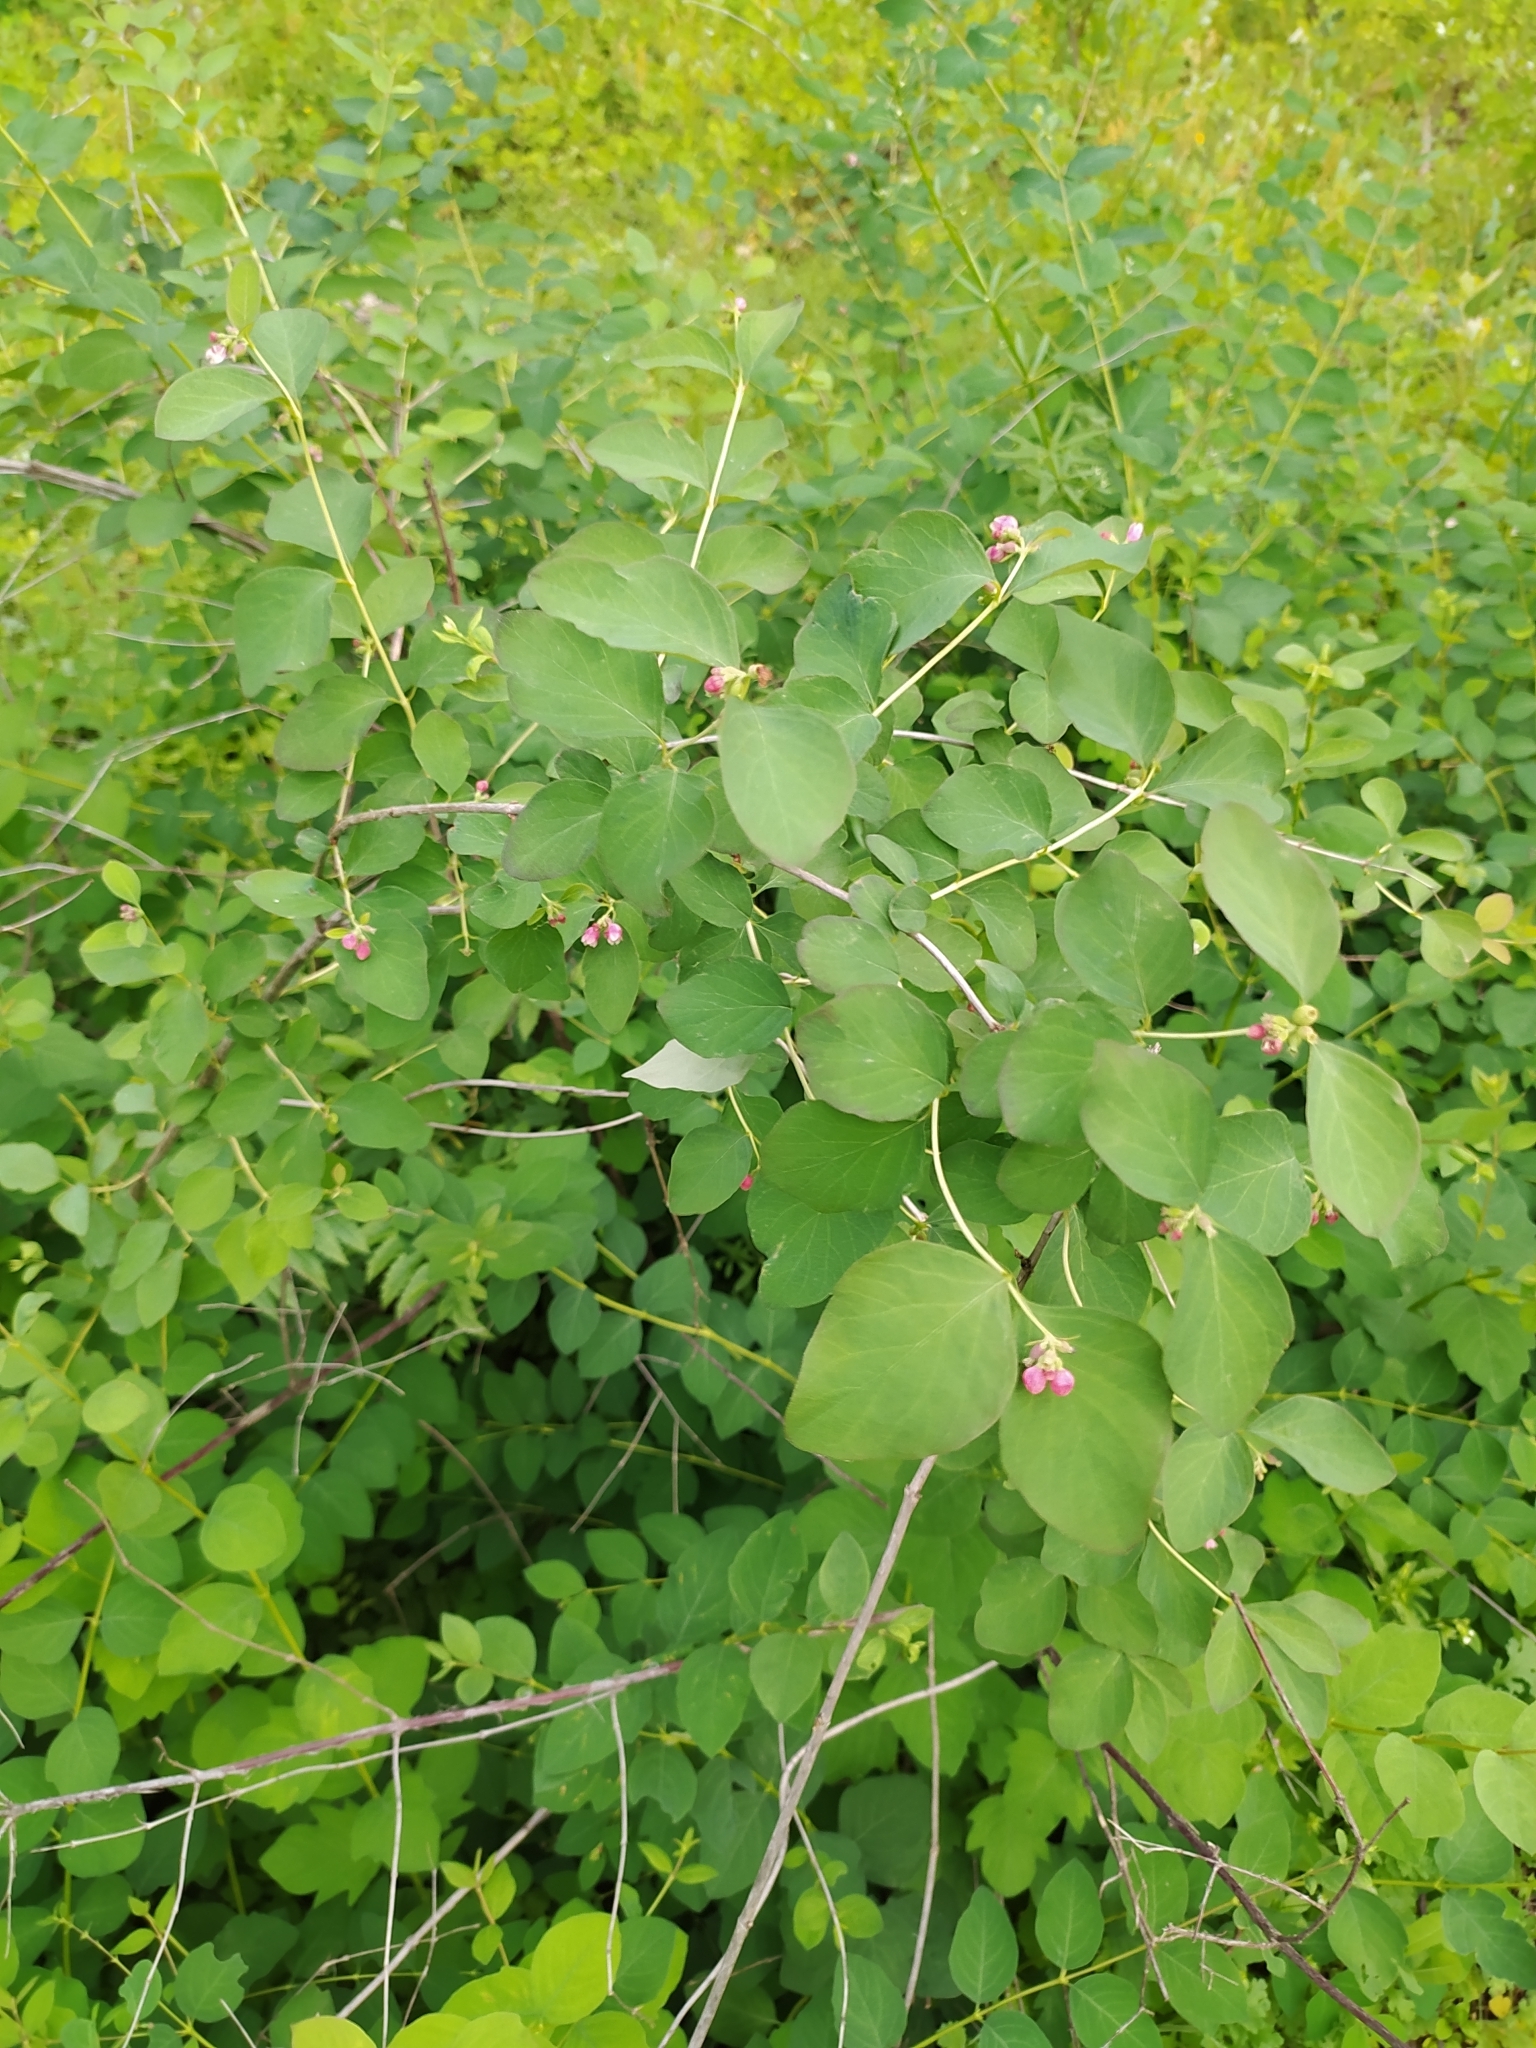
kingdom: Plantae
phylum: Tracheophyta
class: Magnoliopsida
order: Dipsacales
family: Caprifoliaceae
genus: Symphoricarpos
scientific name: Symphoricarpos albus
